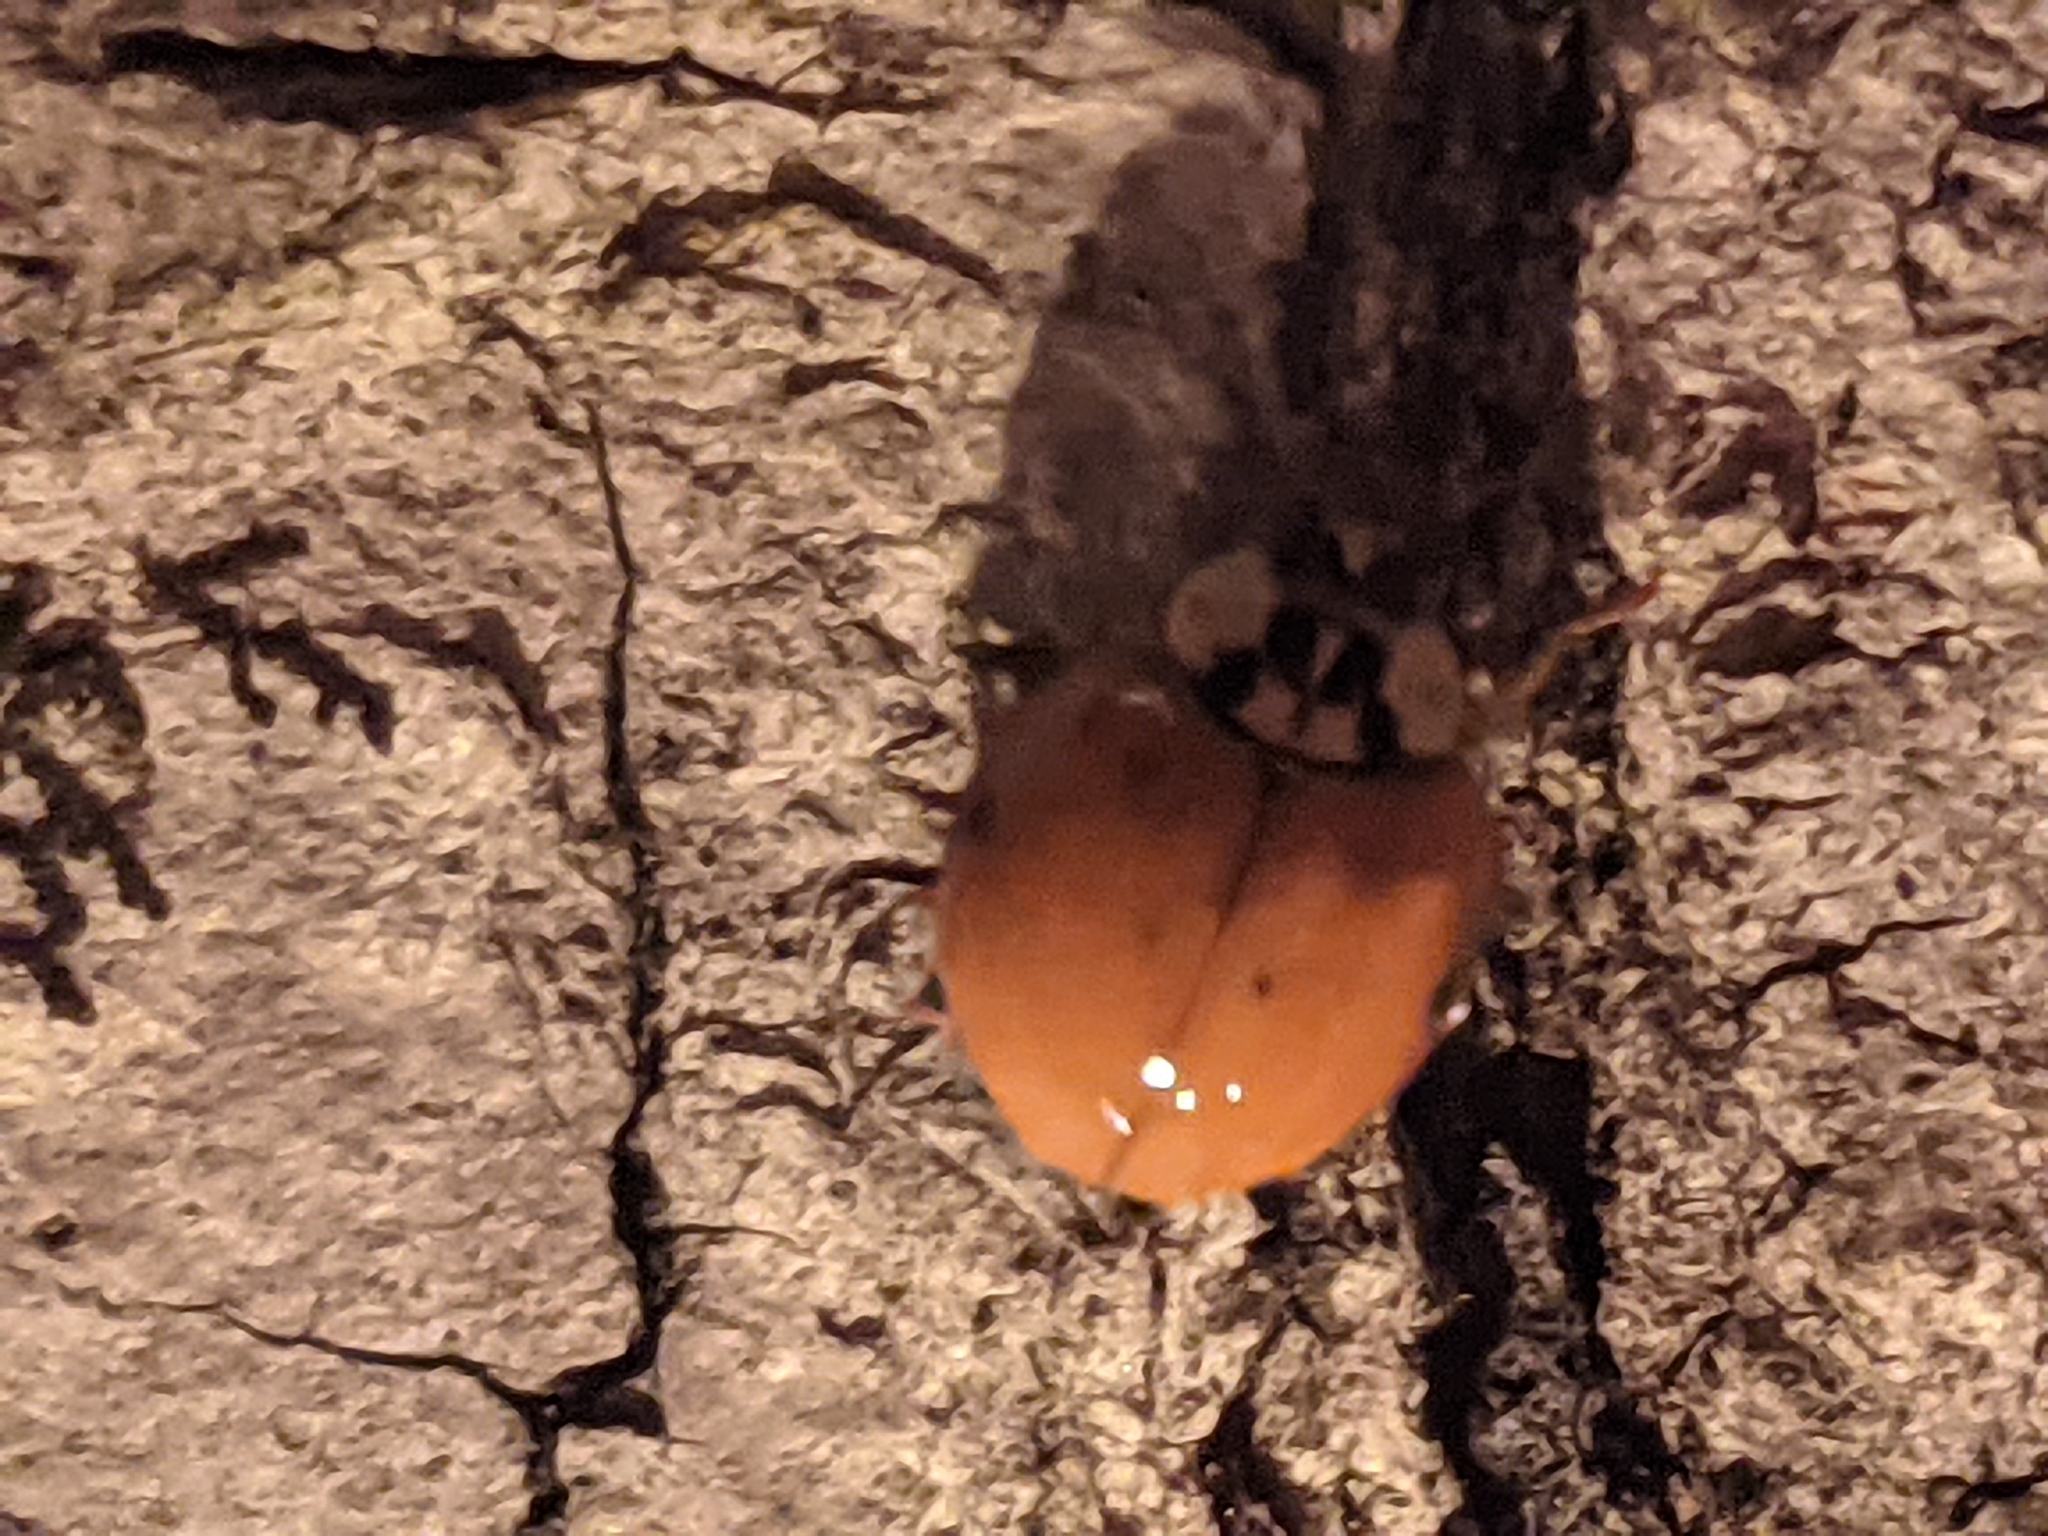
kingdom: Animalia
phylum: Arthropoda
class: Insecta
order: Coleoptera
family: Coccinellidae
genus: Harmonia
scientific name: Harmonia axyridis
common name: Harlequin ladybird
